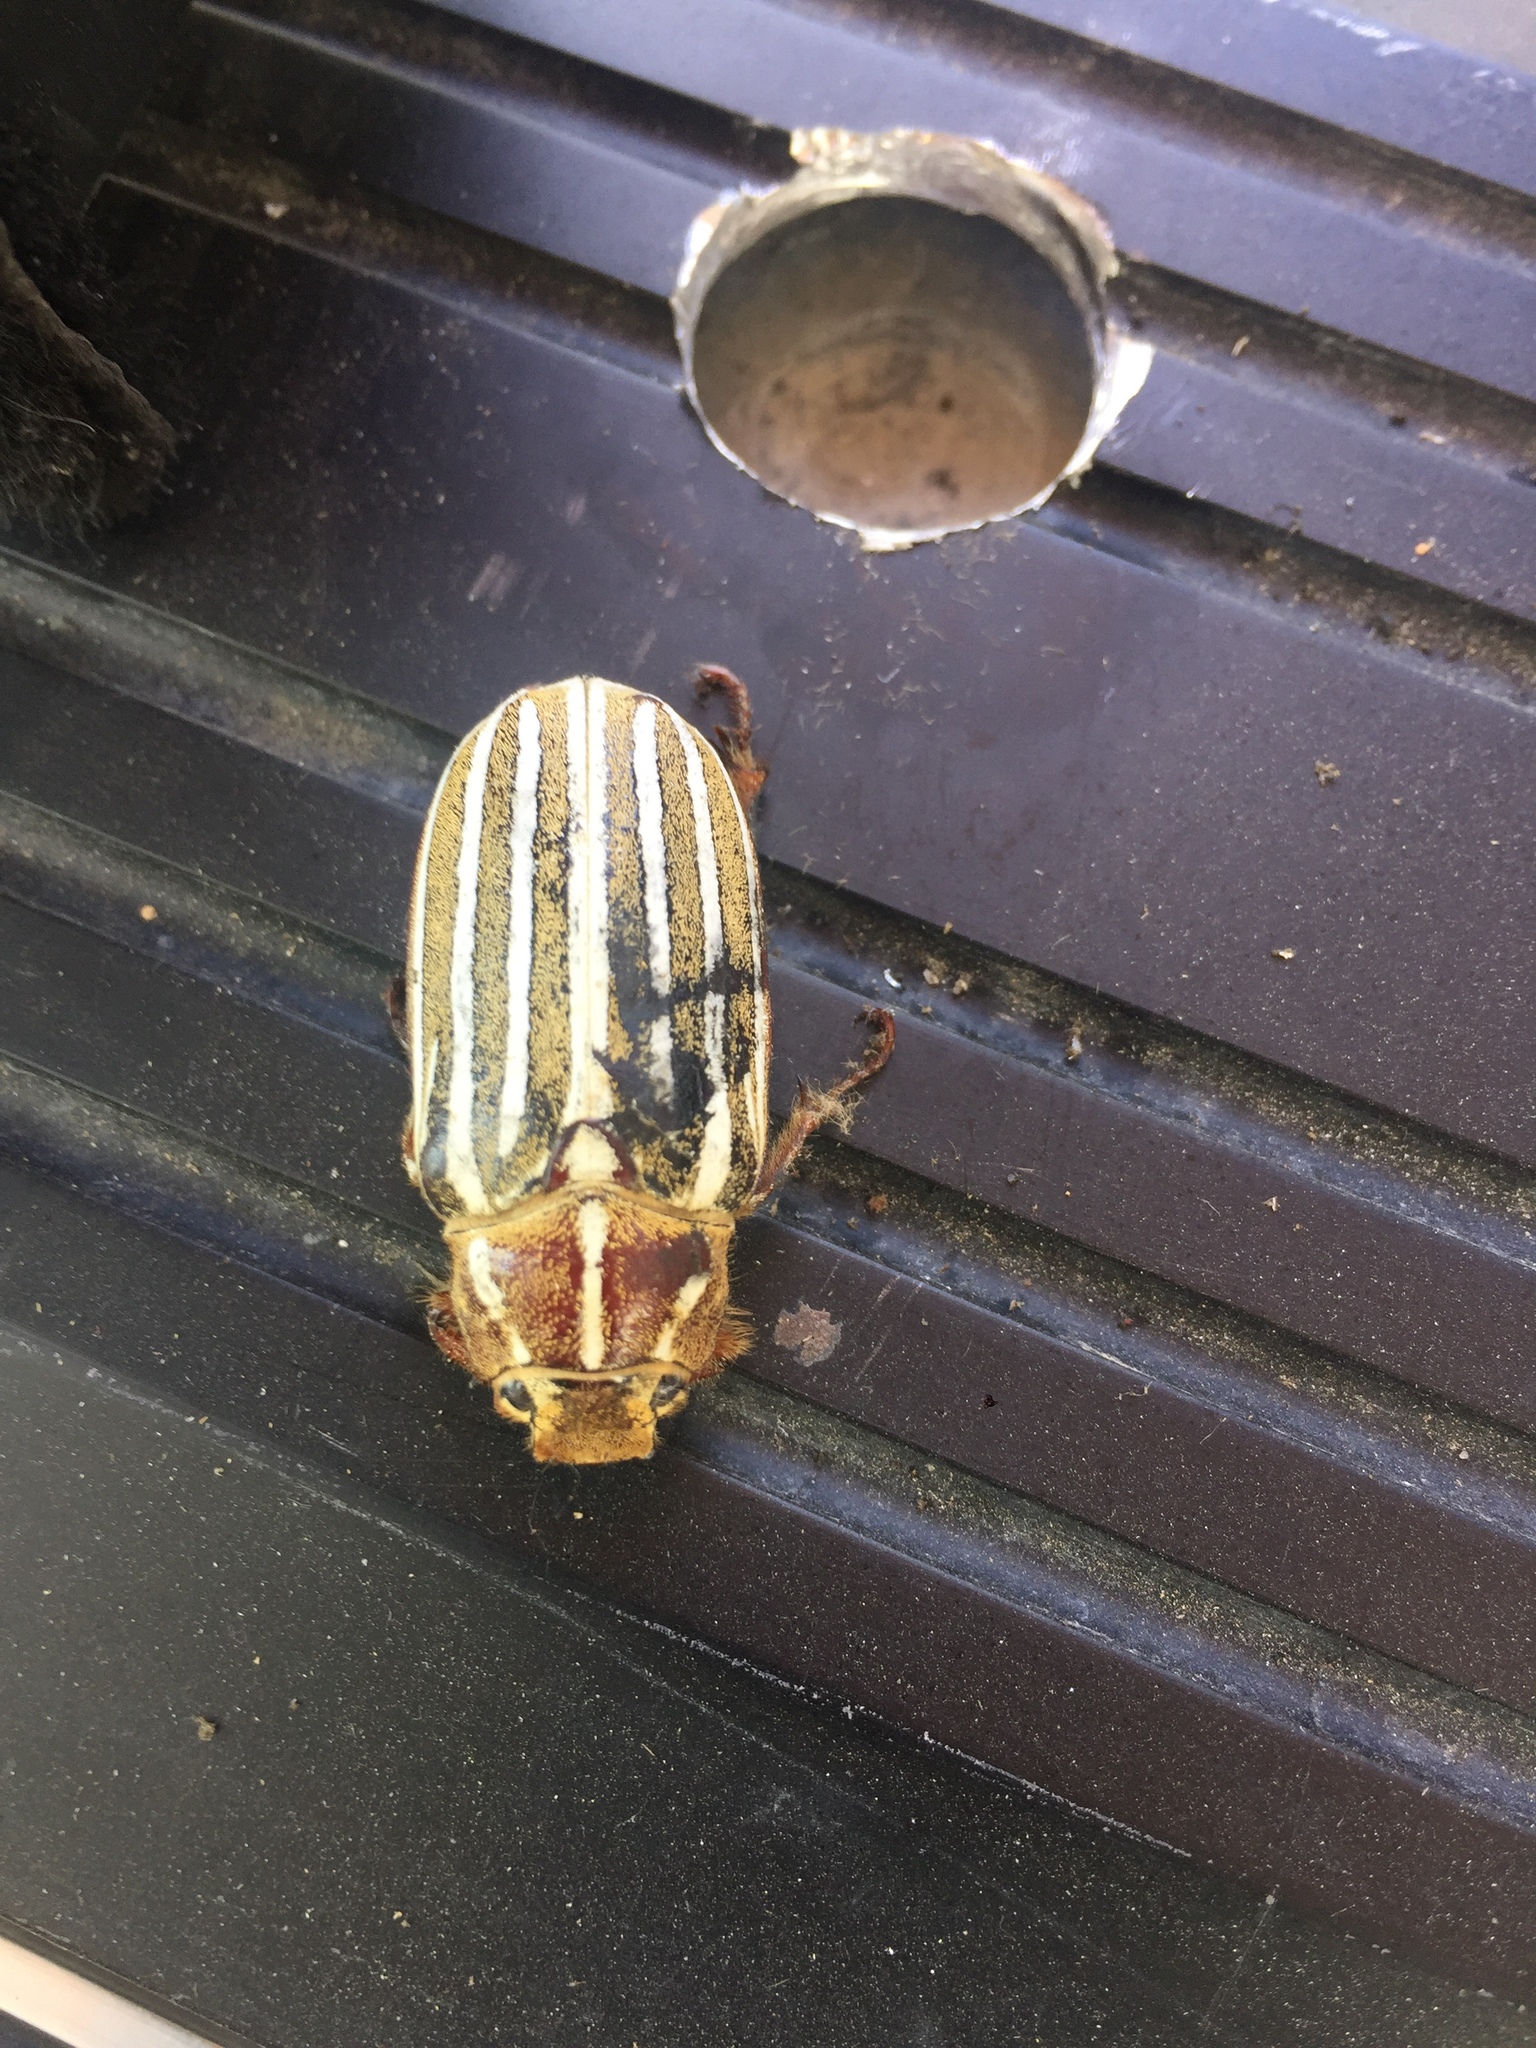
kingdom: Animalia
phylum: Arthropoda
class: Insecta
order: Coleoptera
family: Scarabaeidae
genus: Polyphylla
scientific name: Polyphylla decemlineata
